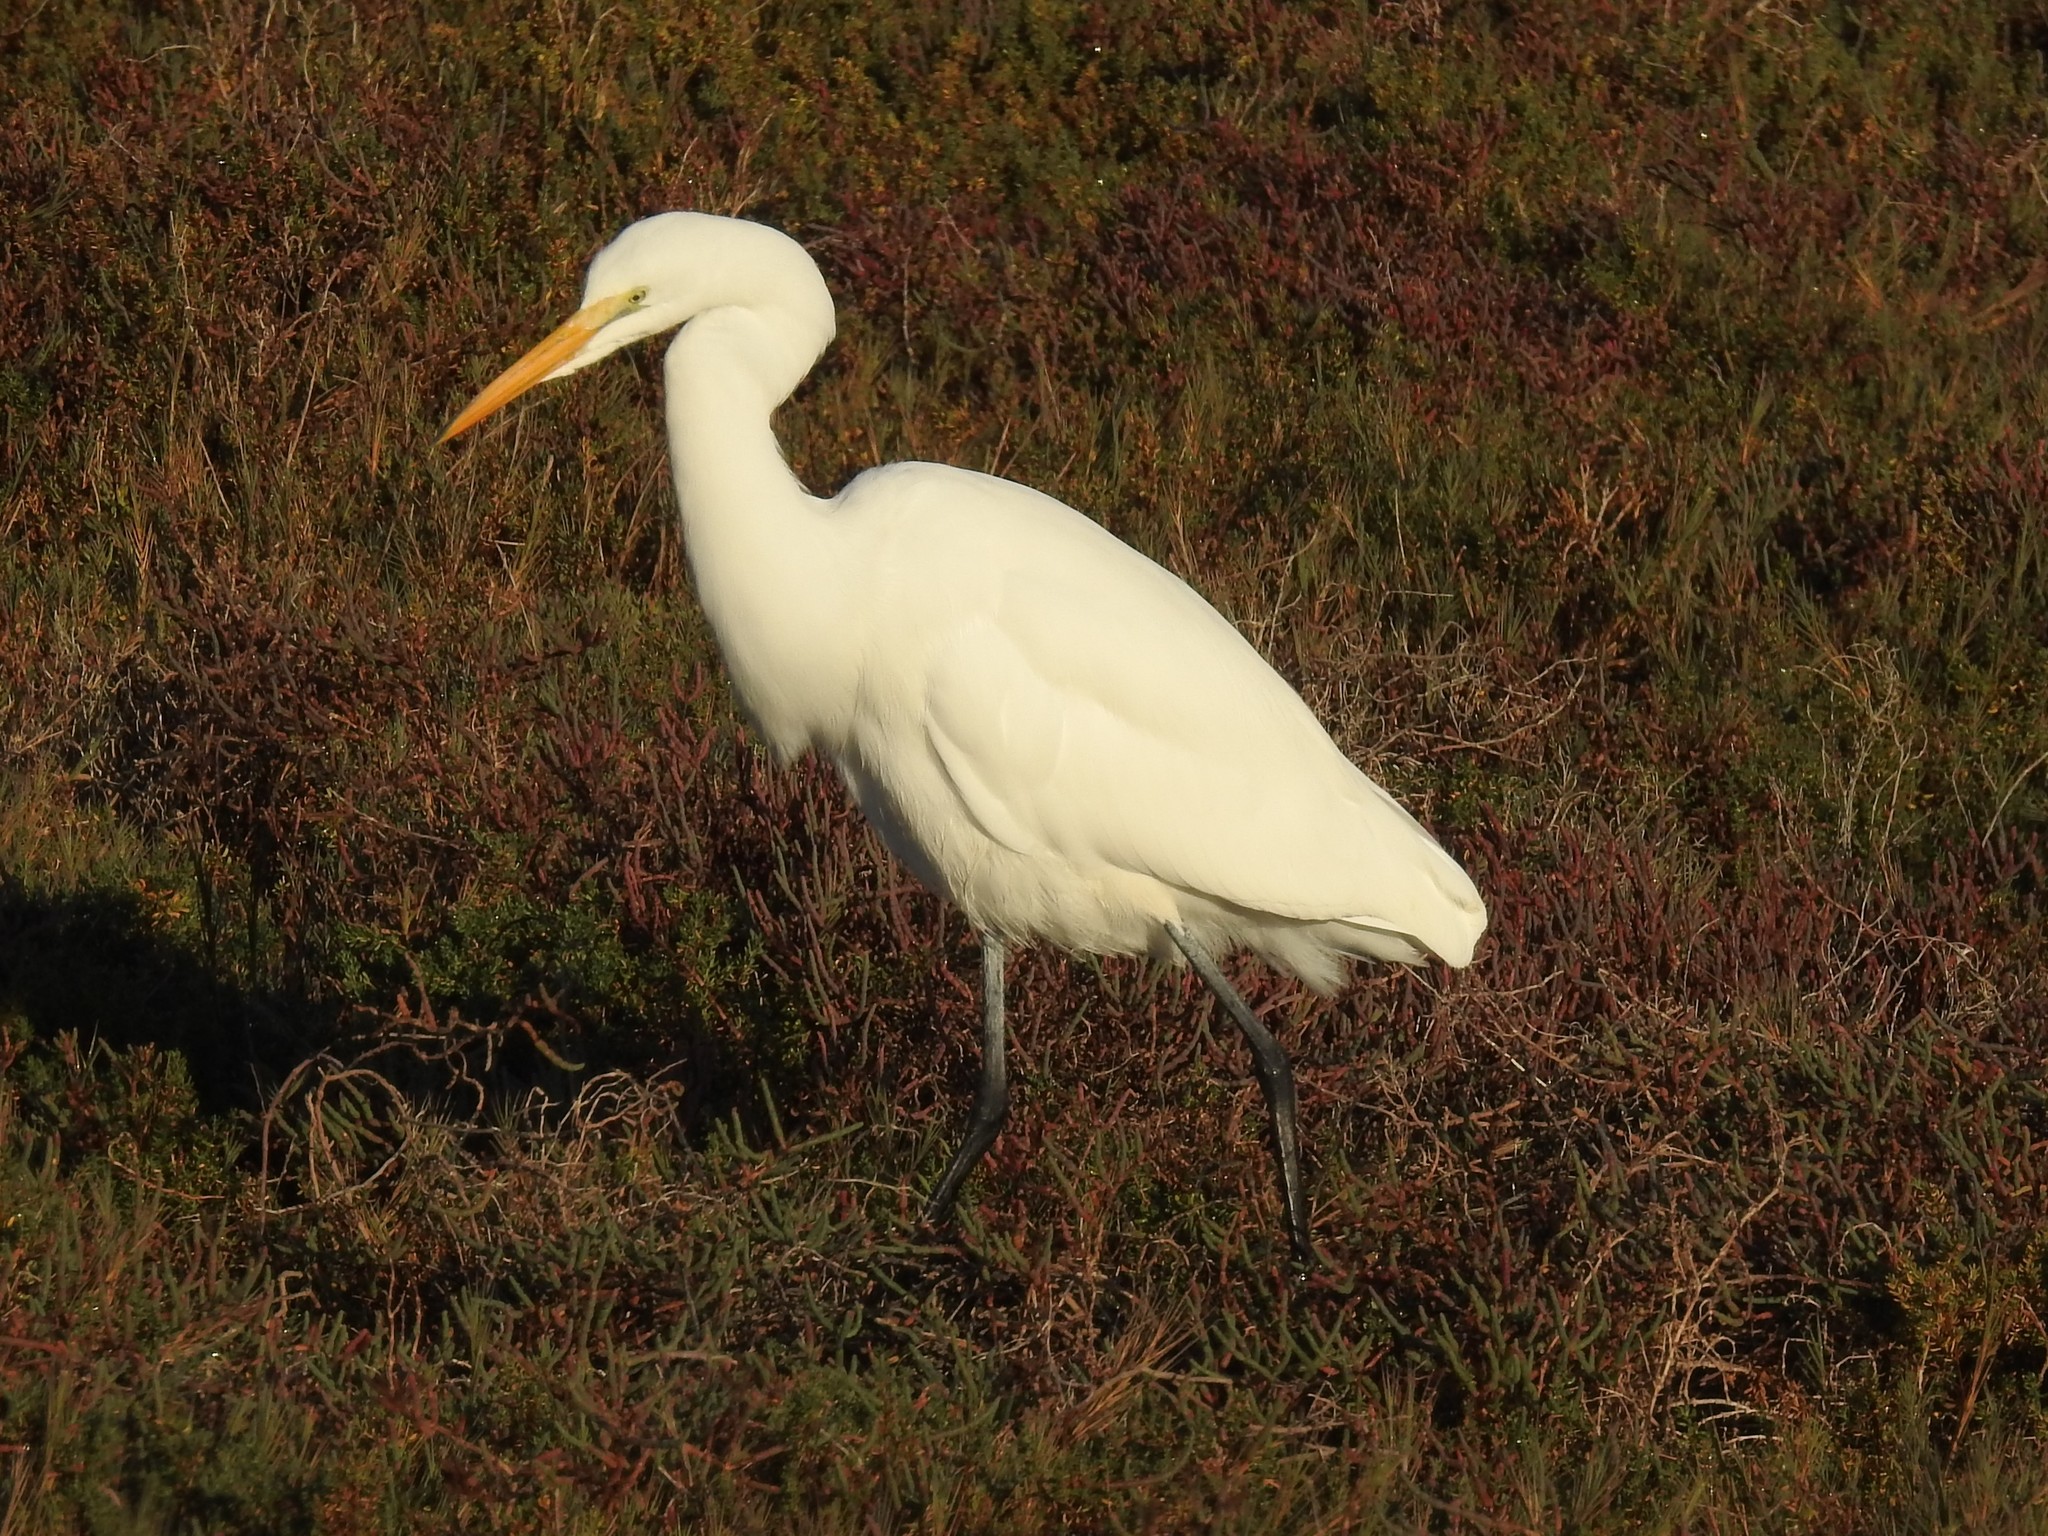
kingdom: Animalia
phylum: Chordata
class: Aves
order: Pelecaniformes
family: Ardeidae
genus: Ardea
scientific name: Ardea alba
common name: Great egret
